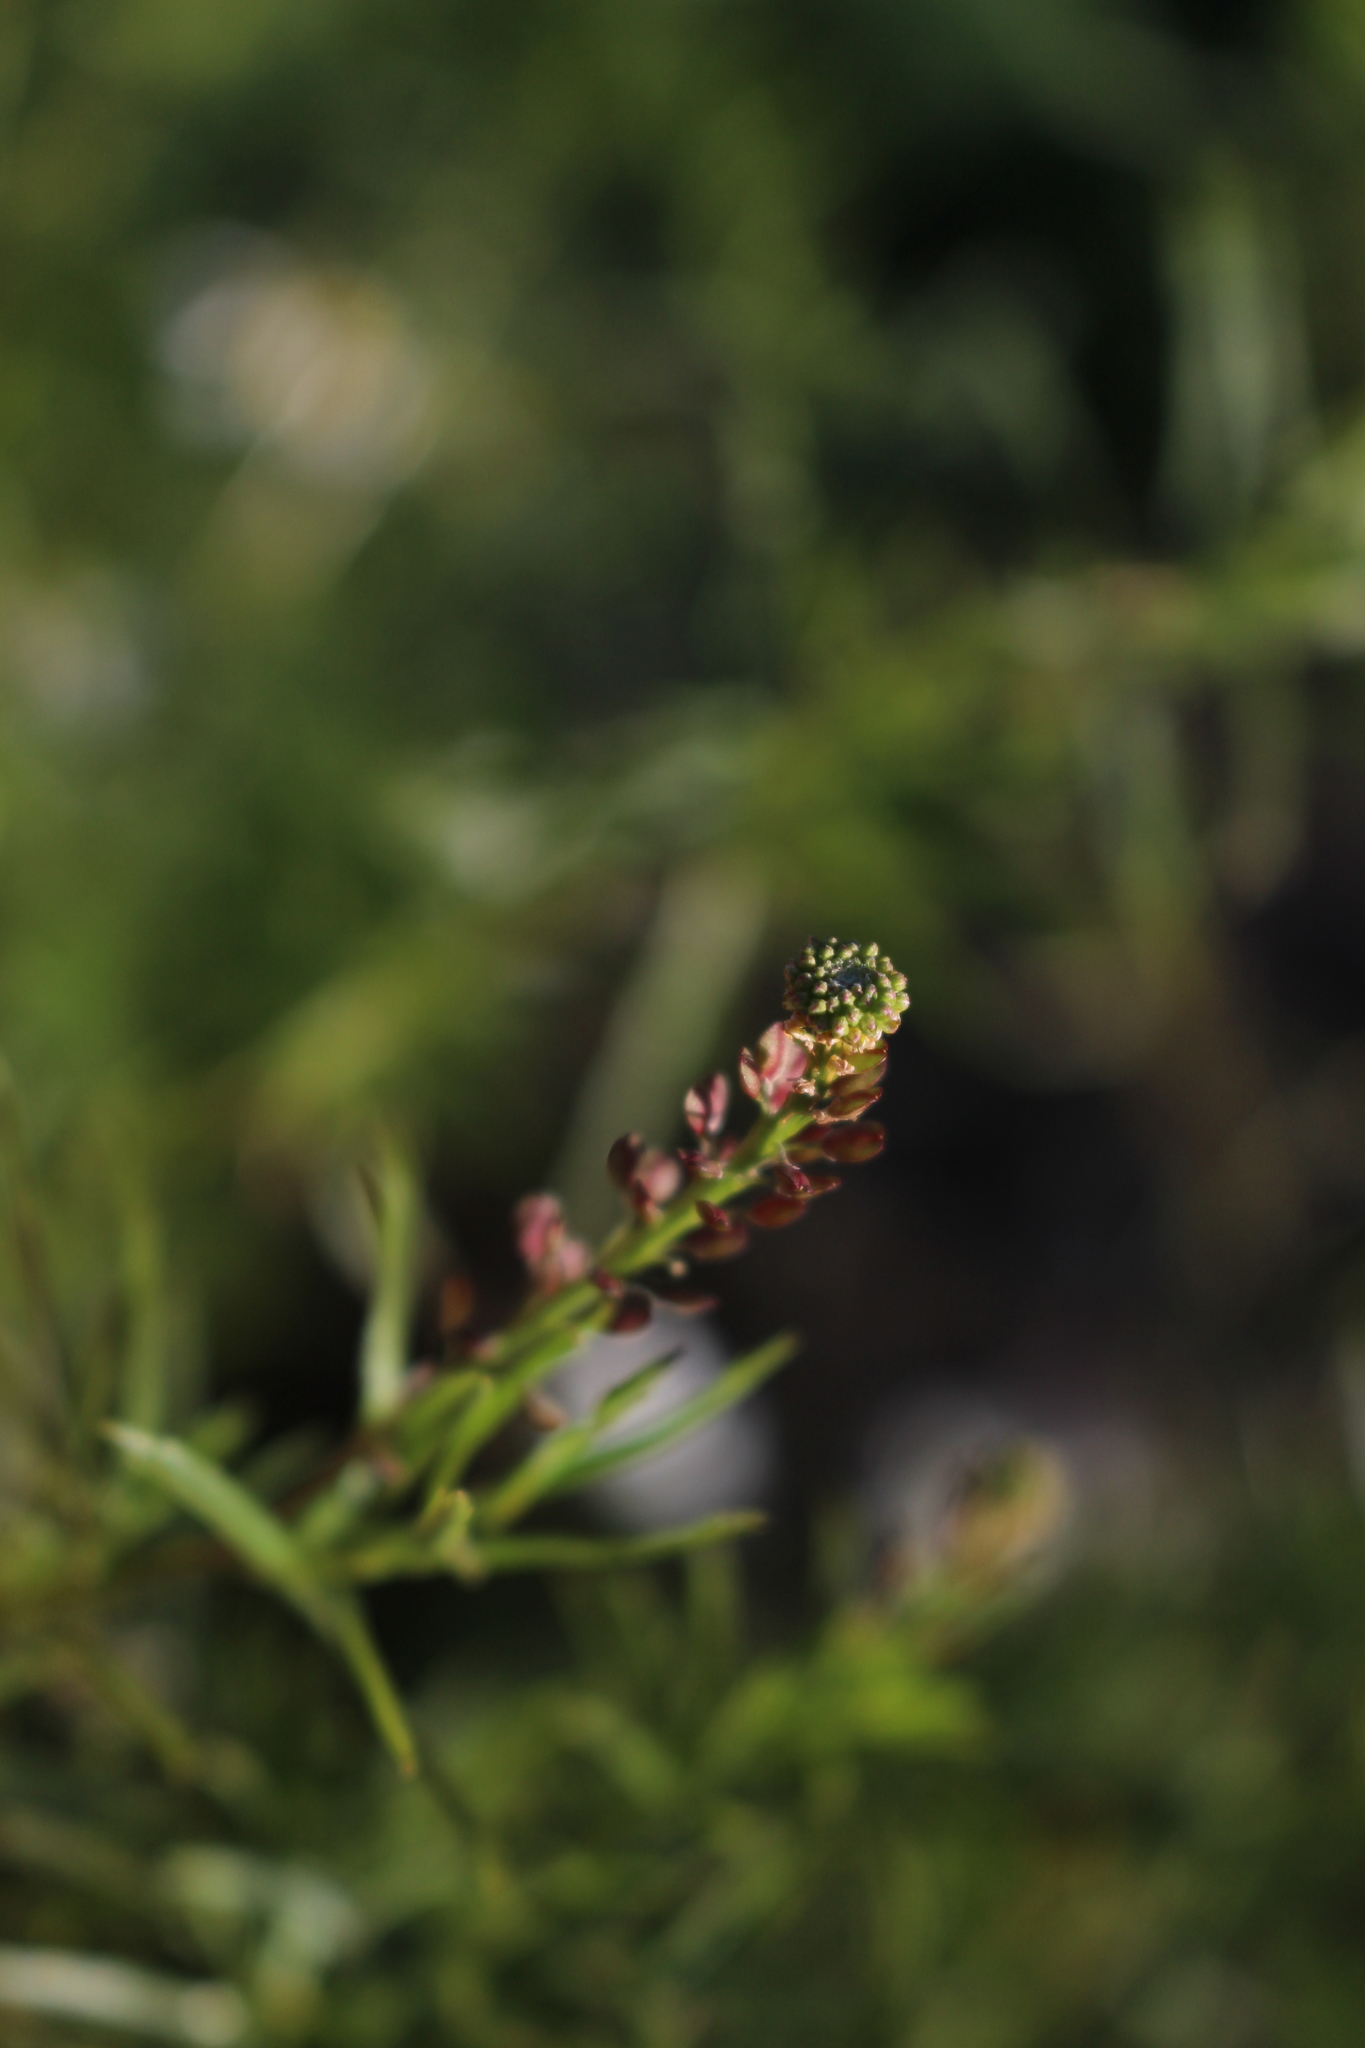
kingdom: Plantae
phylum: Tracheophyta
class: Magnoliopsida
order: Brassicales
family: Brassicaceae
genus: Lepidium
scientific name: Lepidium africanum
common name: African pepperwort
